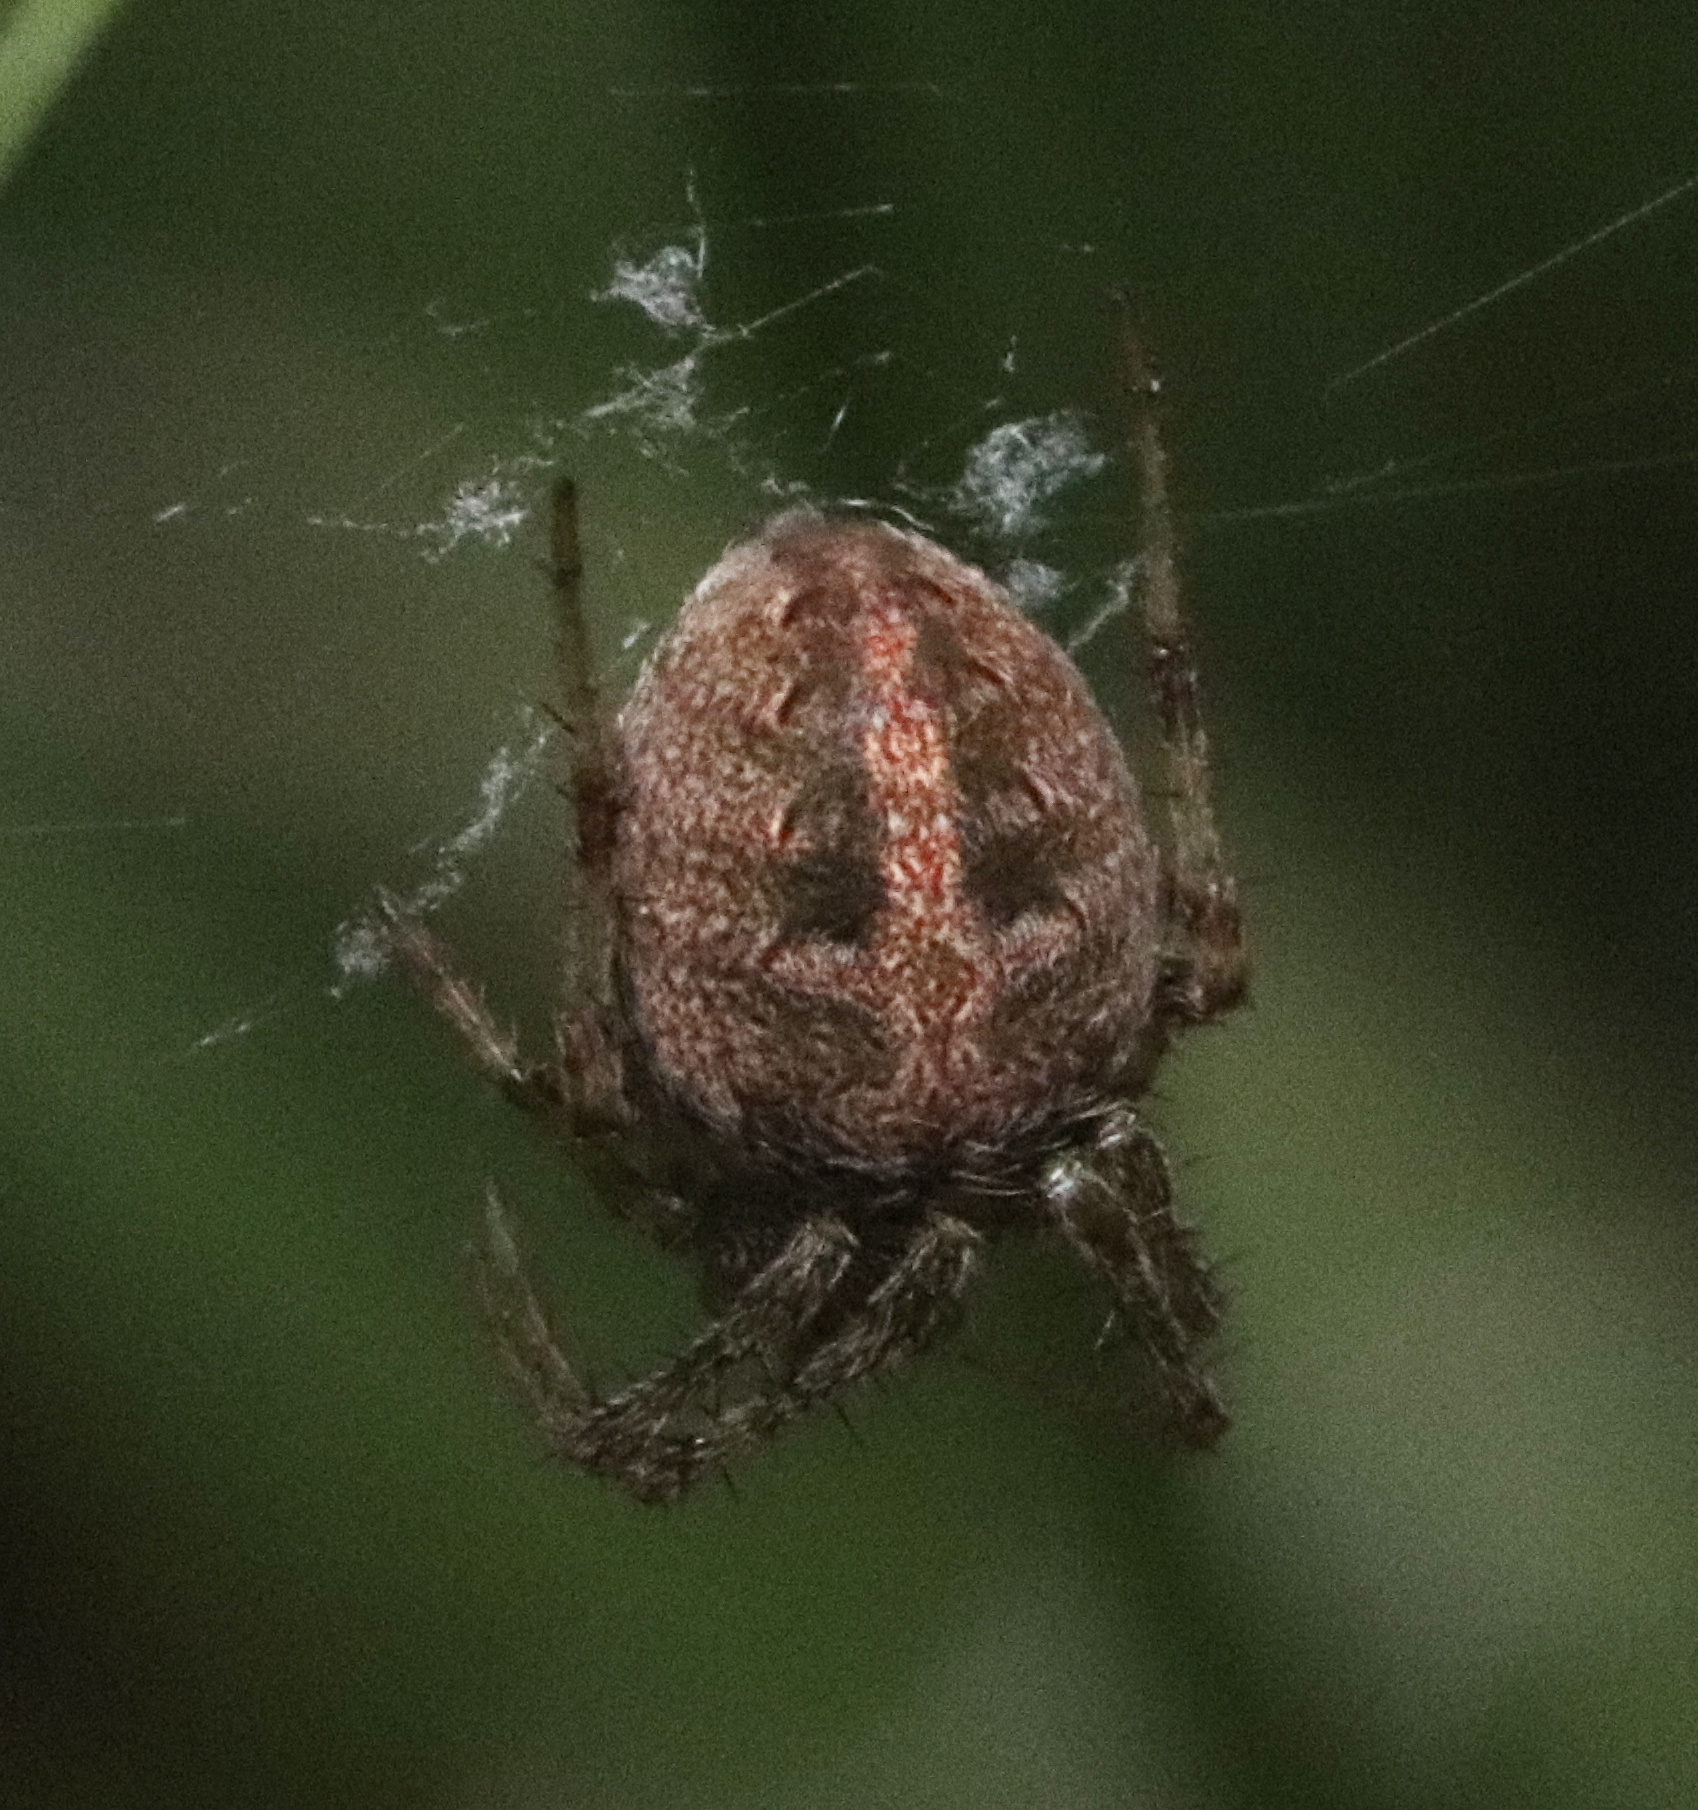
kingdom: Animalia
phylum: Arthropoda
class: Arachnida
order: Araneae
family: Araneidae
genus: Neoscona
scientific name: Neoscona arabesca
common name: Orb weavers
